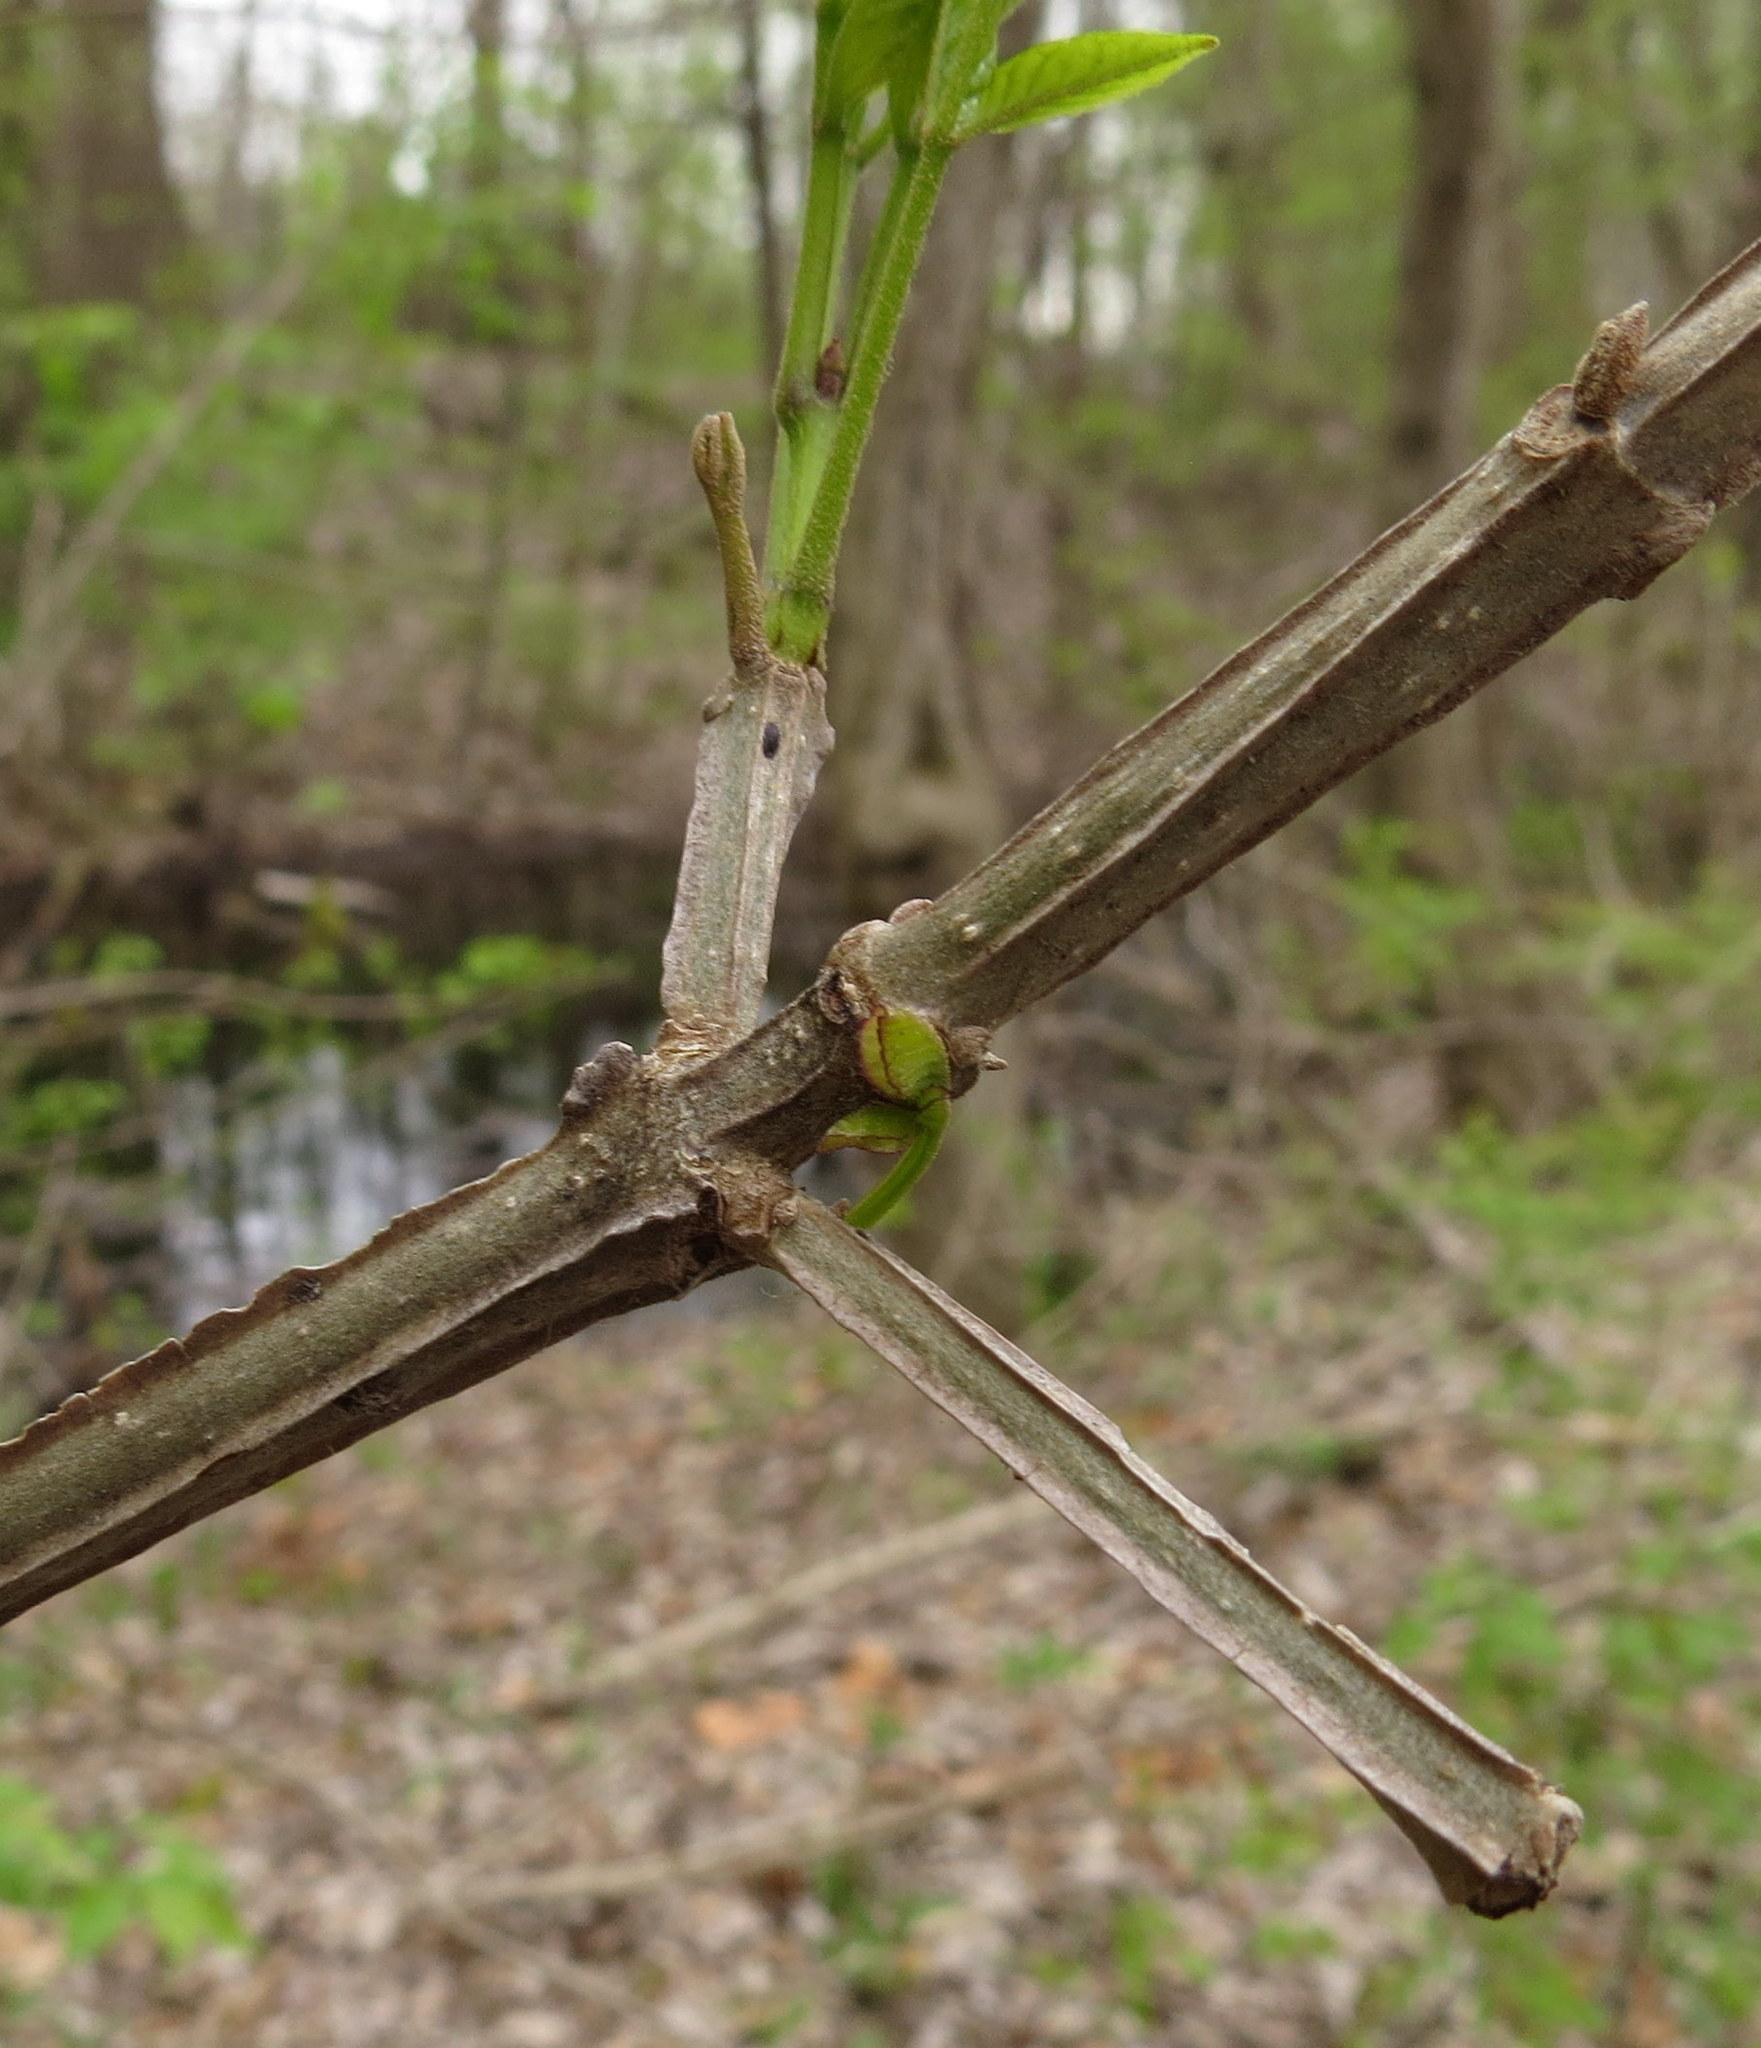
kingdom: Plantae
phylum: Tracheophyta
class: Magnoliopsida
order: Lamiales
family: Oleaceae
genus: Fraxinus
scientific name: Fraxinus quadrangulata
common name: Blue ash
